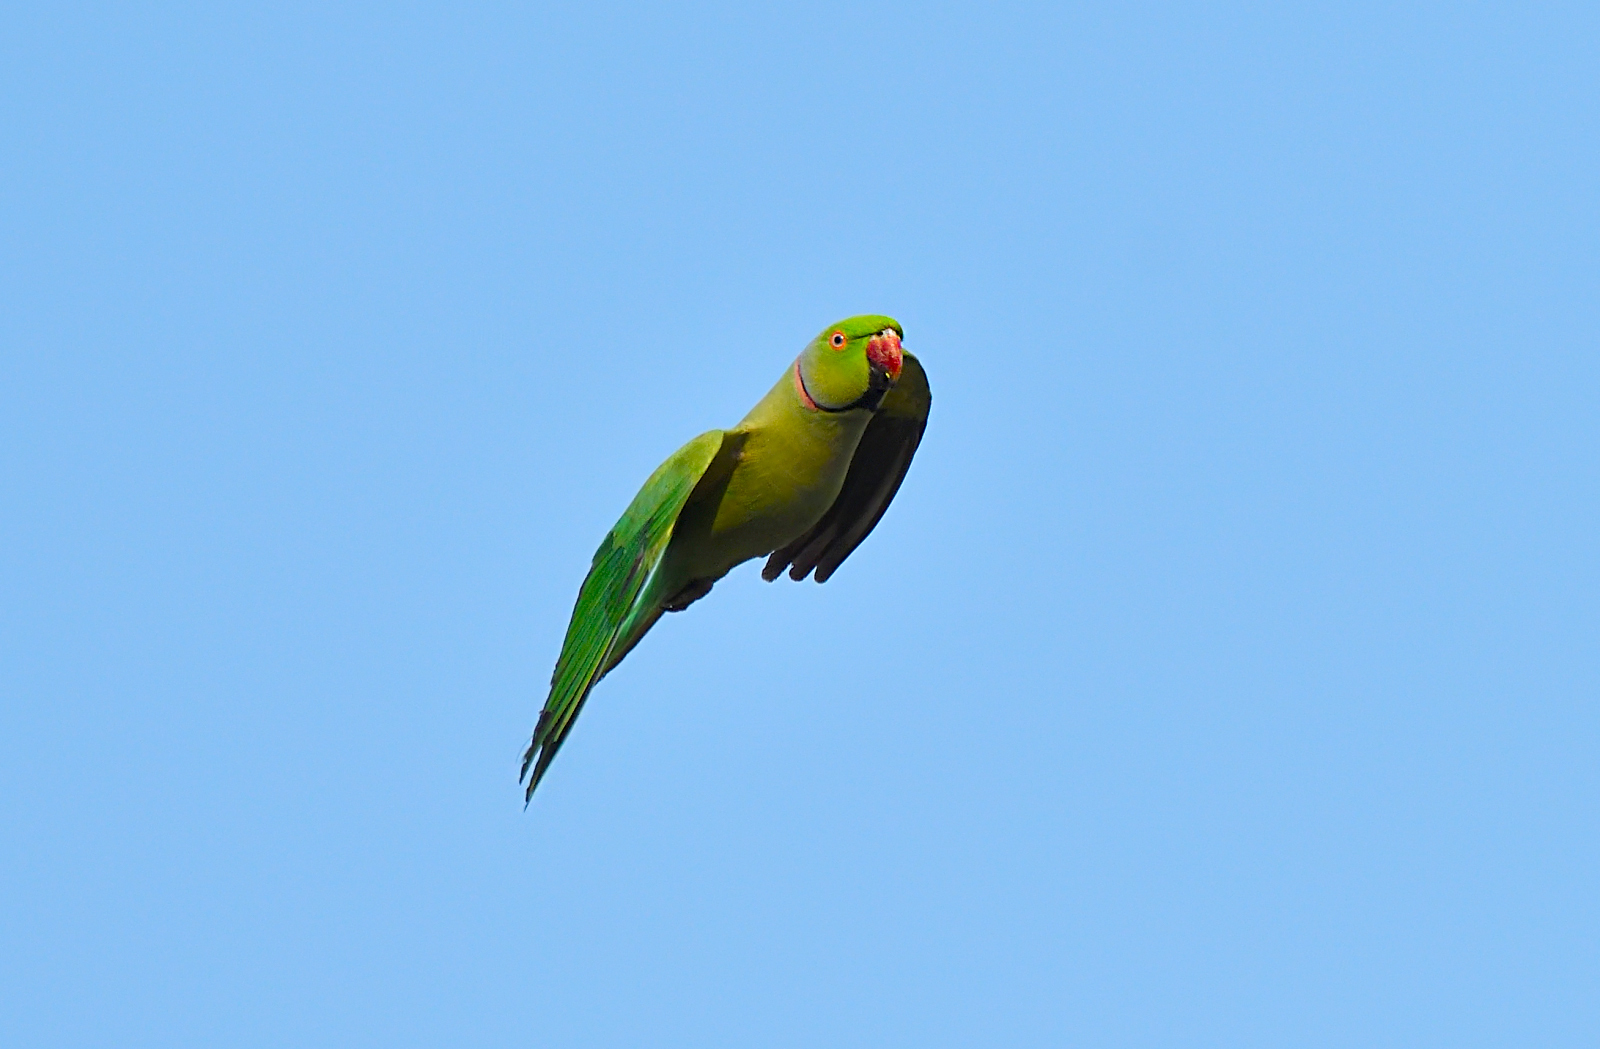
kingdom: Animalia
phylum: Chordata
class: Aves
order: Psittaciformes
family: Psittacidae
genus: Psittacula
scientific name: Psittacula krameri
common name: Rose-ringed parakeet
